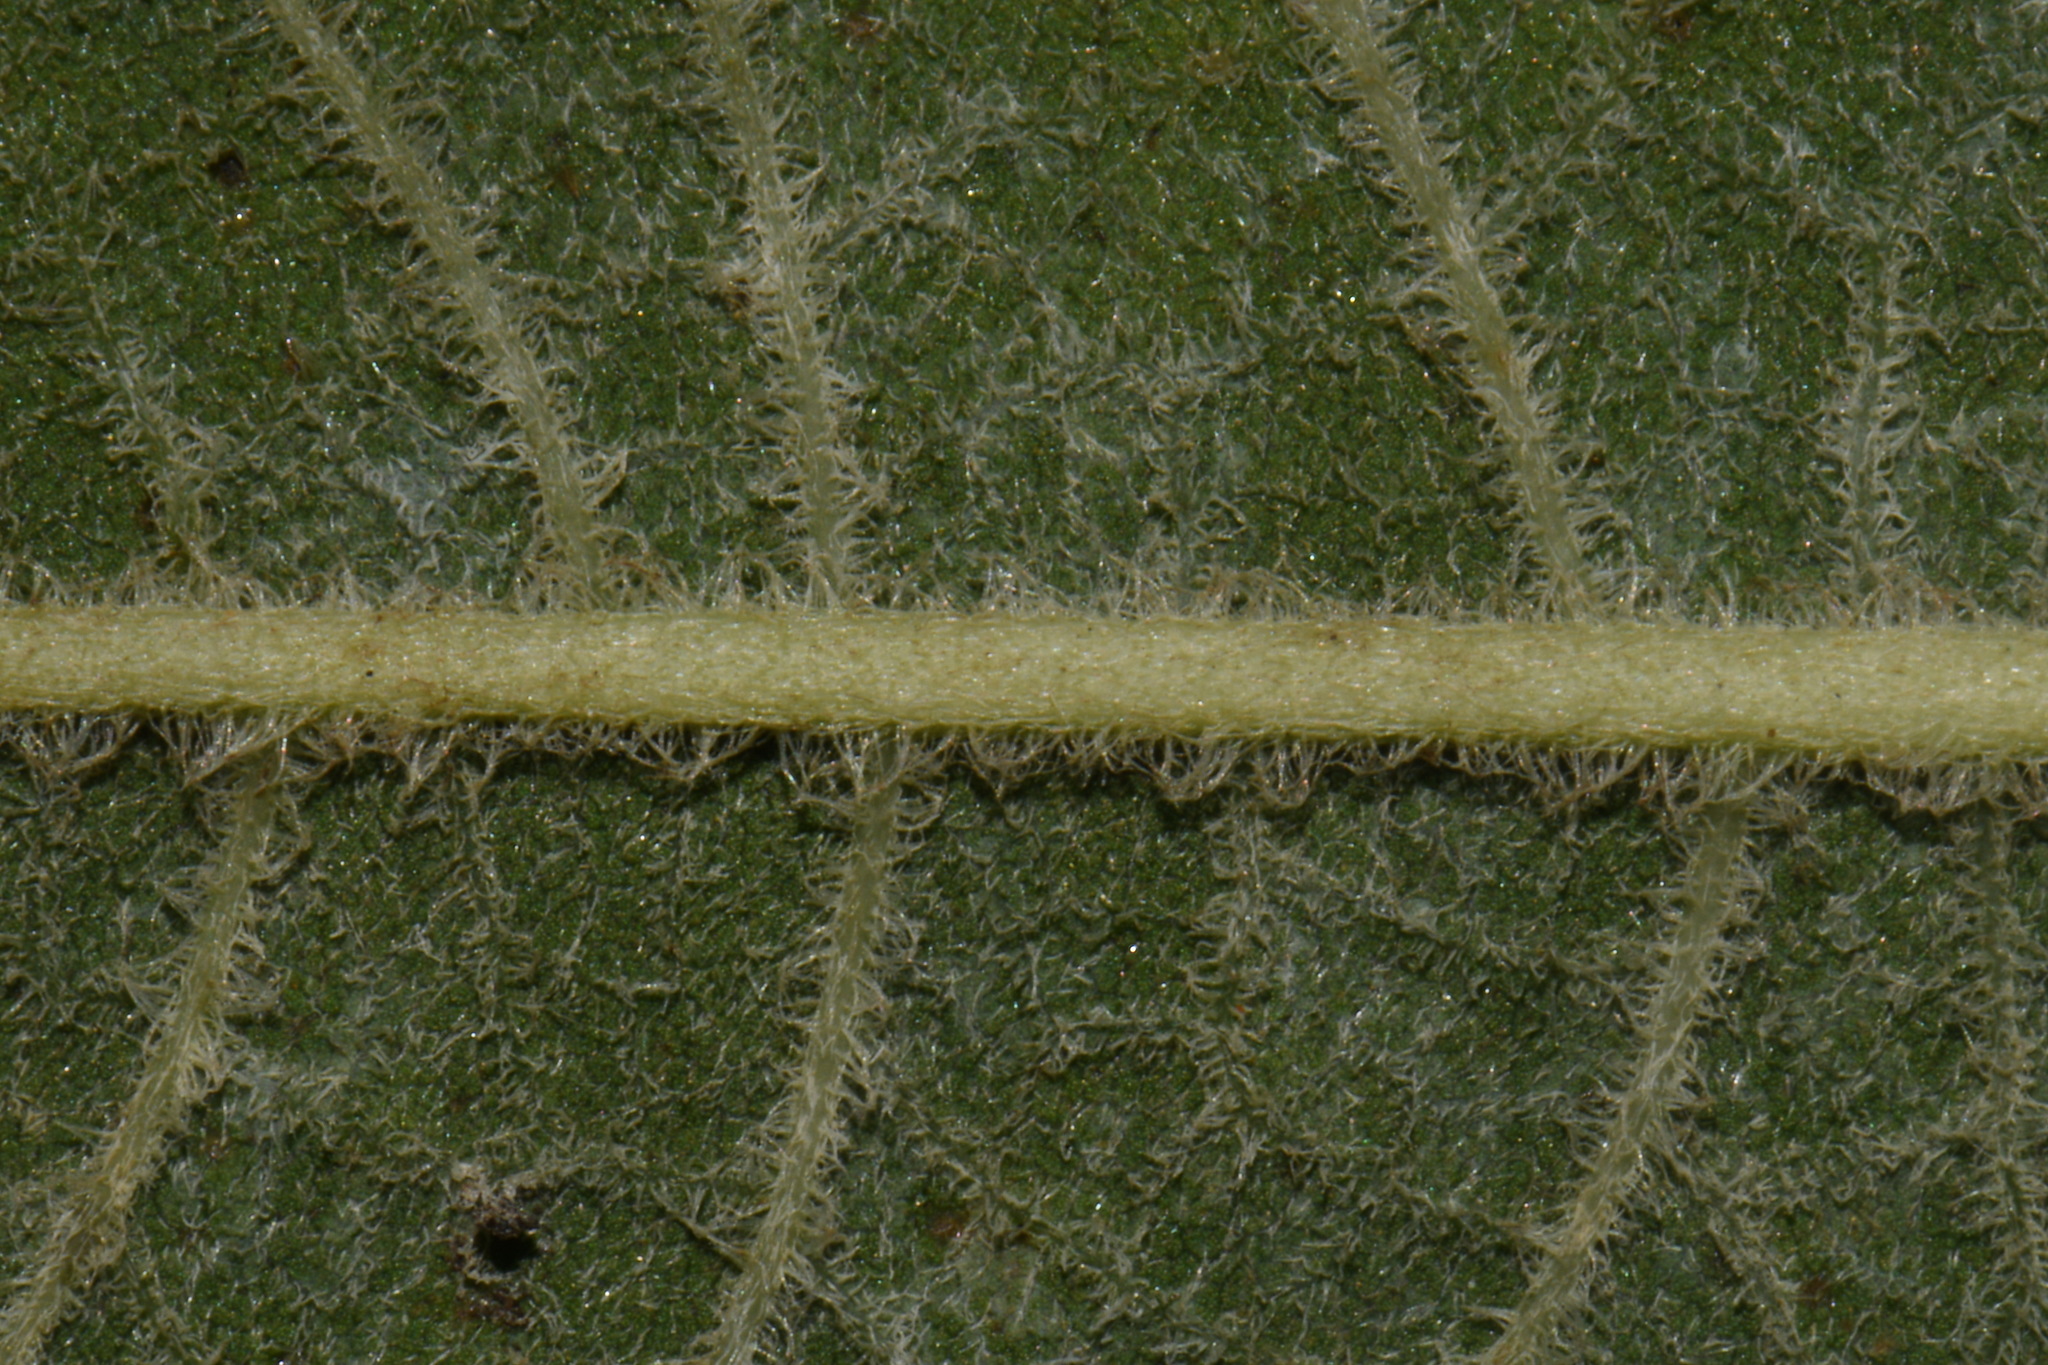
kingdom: Plantae
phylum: Tracheophyta
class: Magnoliopsida
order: Asterales
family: Asteraceae
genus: Vernonia
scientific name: Vernonia noveboracensis
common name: New york ironweed
